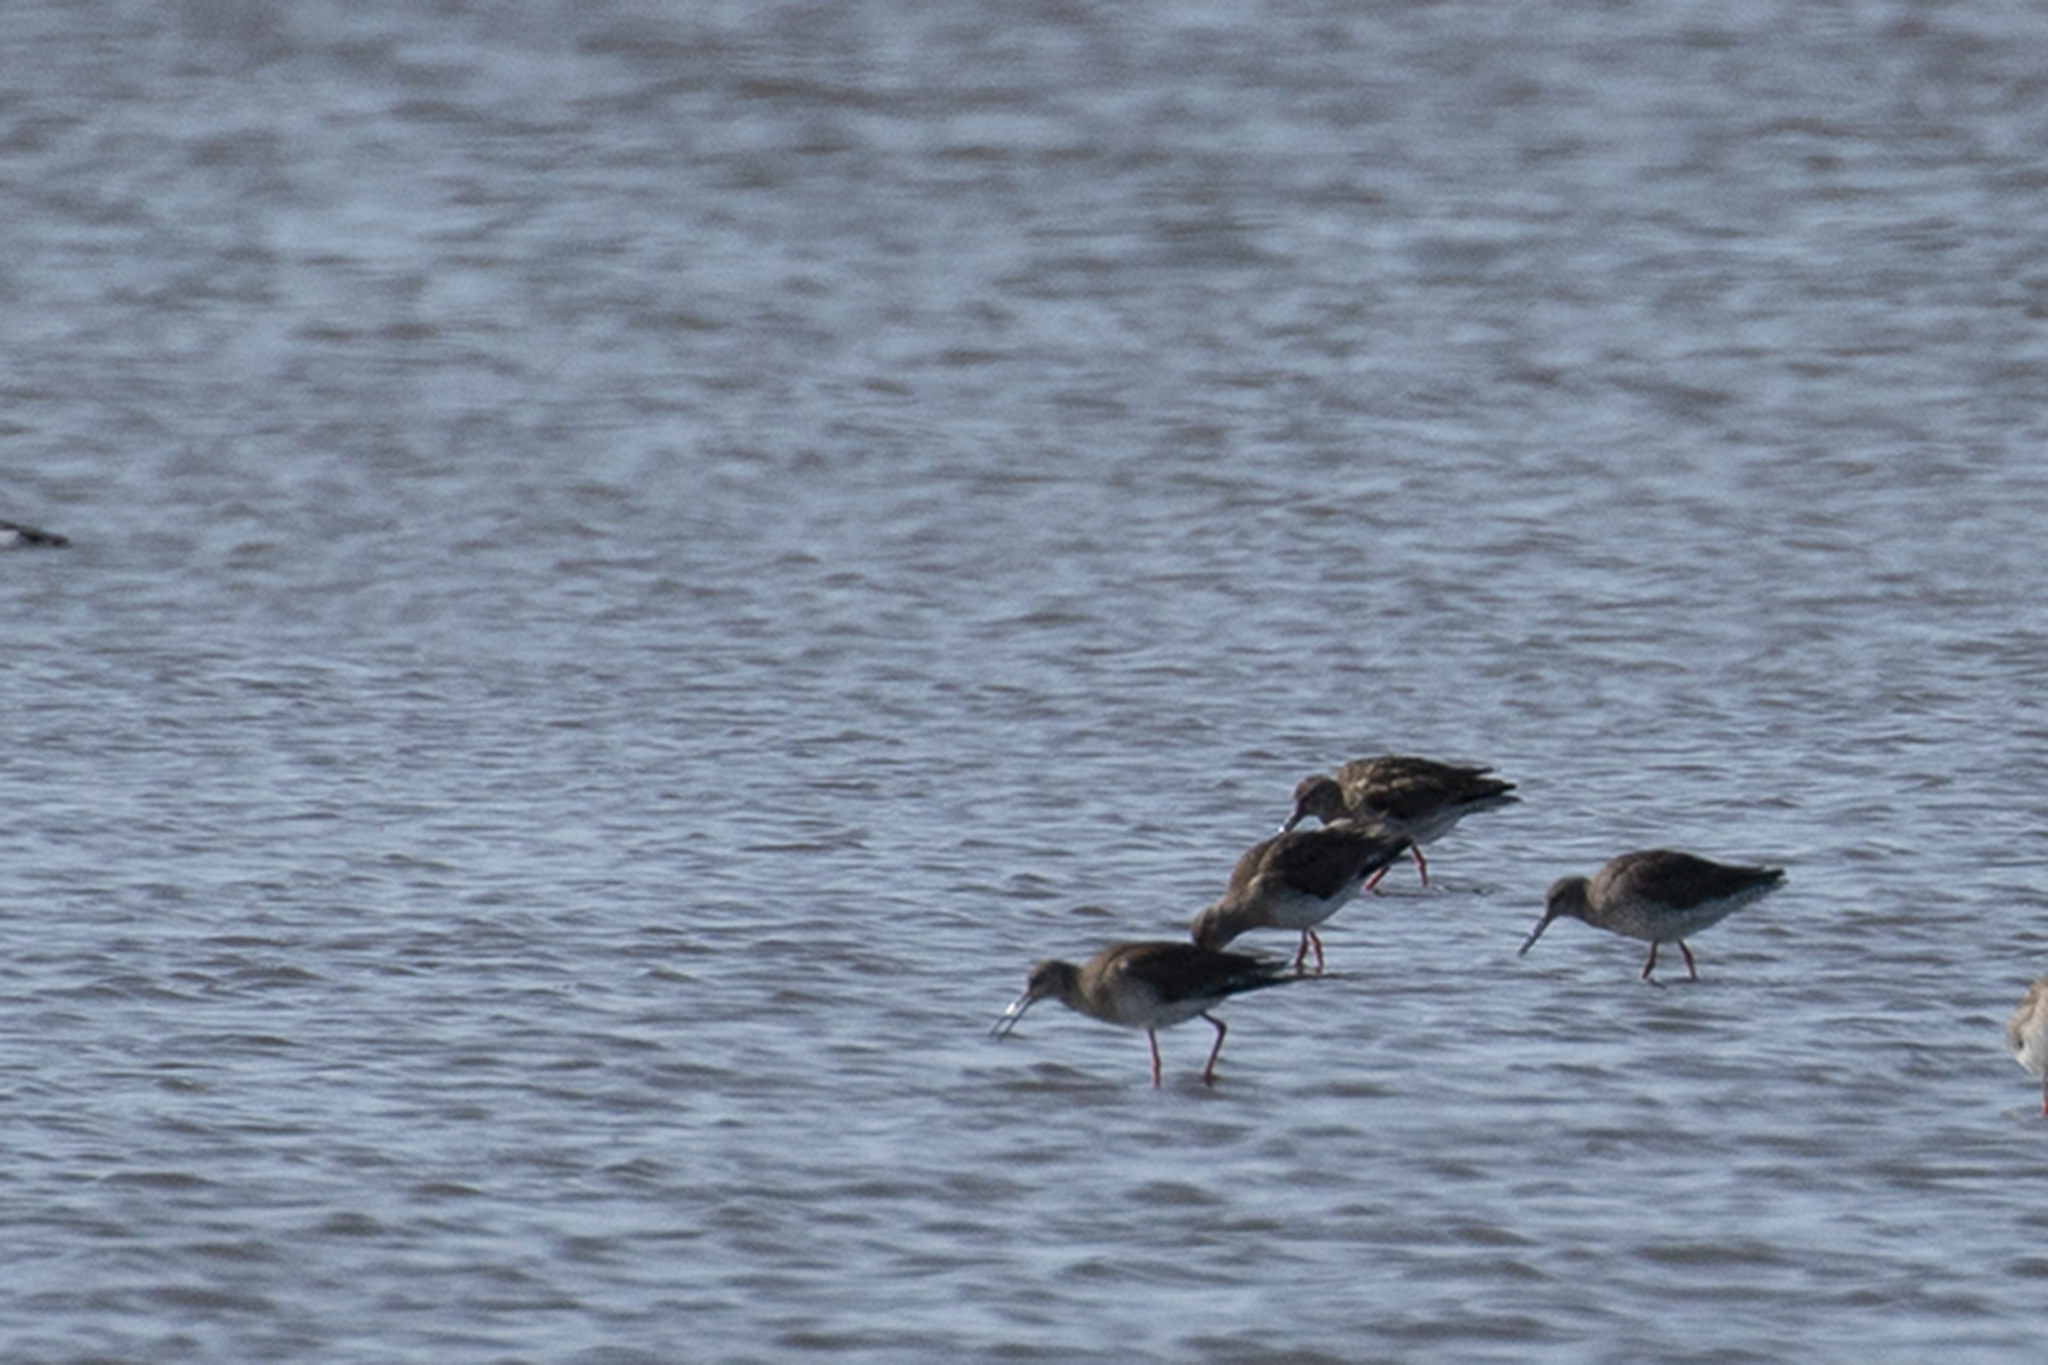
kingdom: Animalia
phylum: Chordata
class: Aves
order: Charadriiformes
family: Scolopacidae
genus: Tringa
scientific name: Tringa totanus
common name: Common redshank
